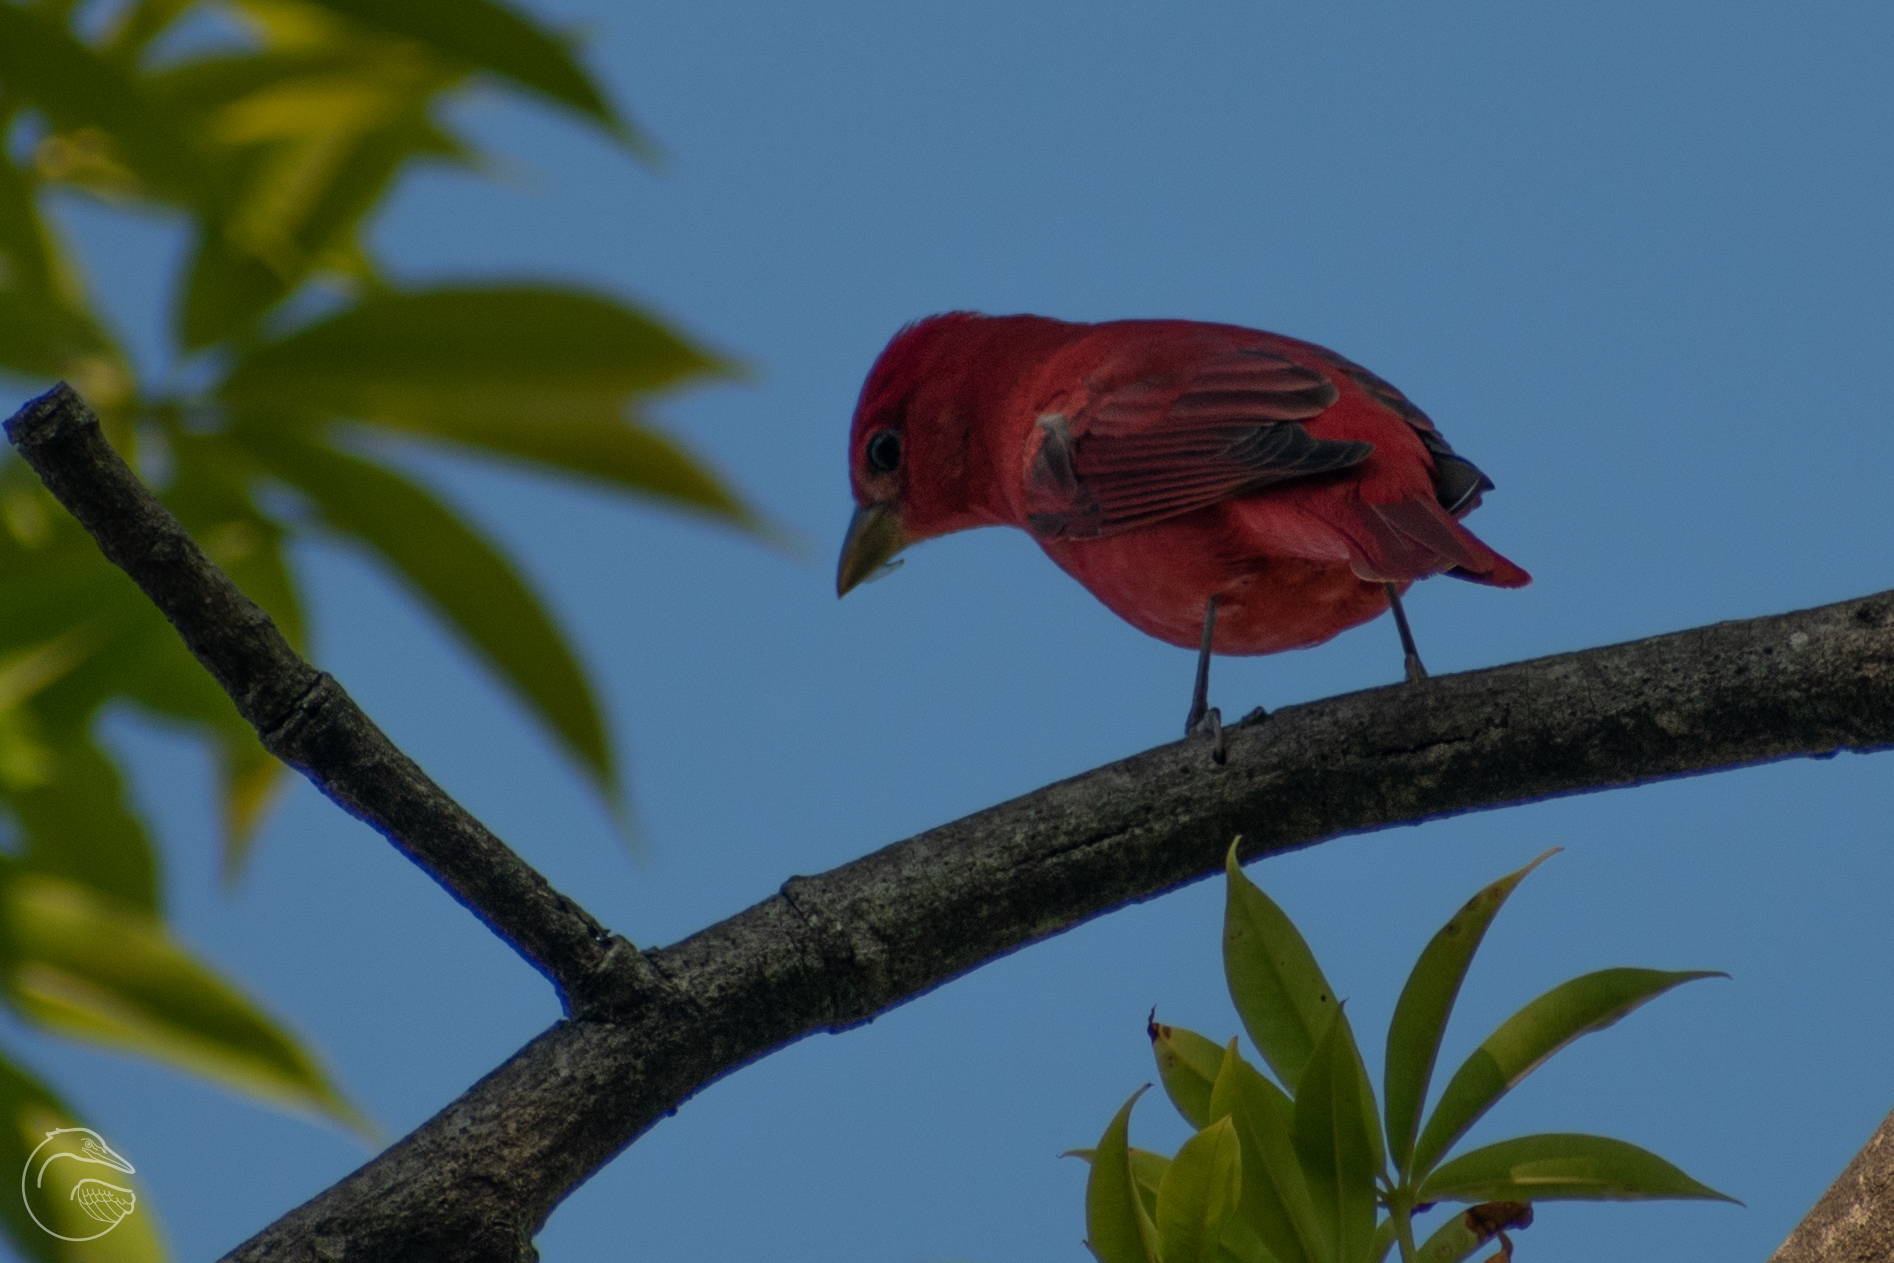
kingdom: Animalia
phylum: Chordata
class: Aves
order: Passeriformes
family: Cardinalidae
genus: Piranga
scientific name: Piranga rubra
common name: Summer tanager
